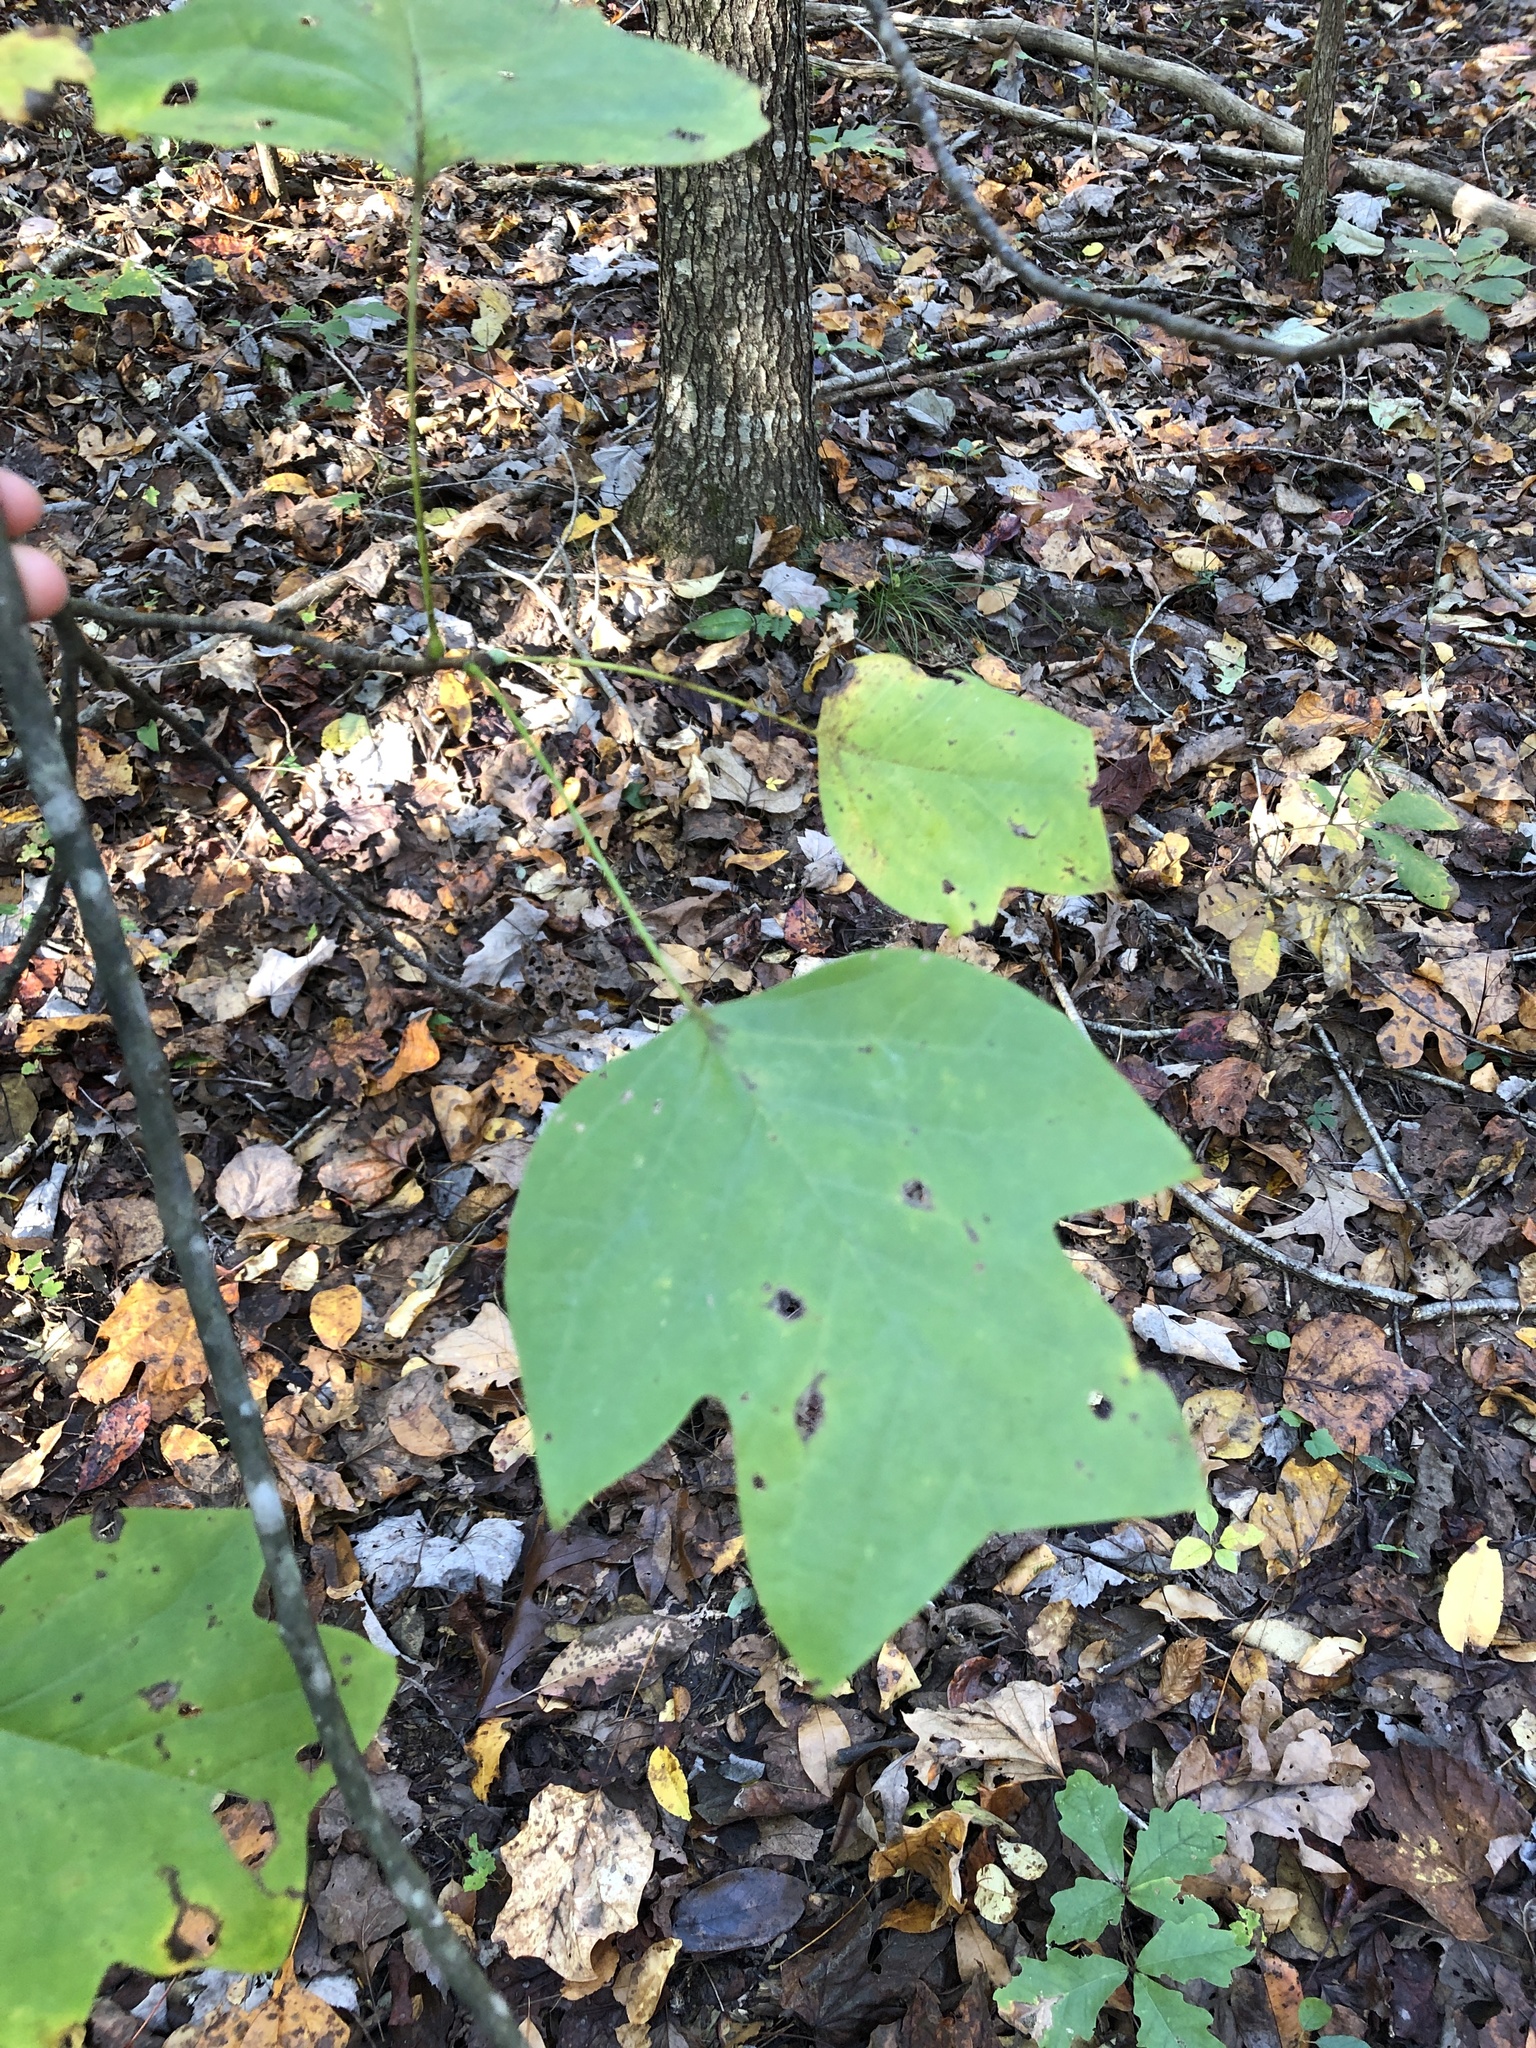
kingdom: Plantae
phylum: Tracheophyta
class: Magnoliopsida
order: Magnoliales
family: Magnoliaceae
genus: Liriodendron
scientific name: Liriodendron tulipifera
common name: Tulip tree
